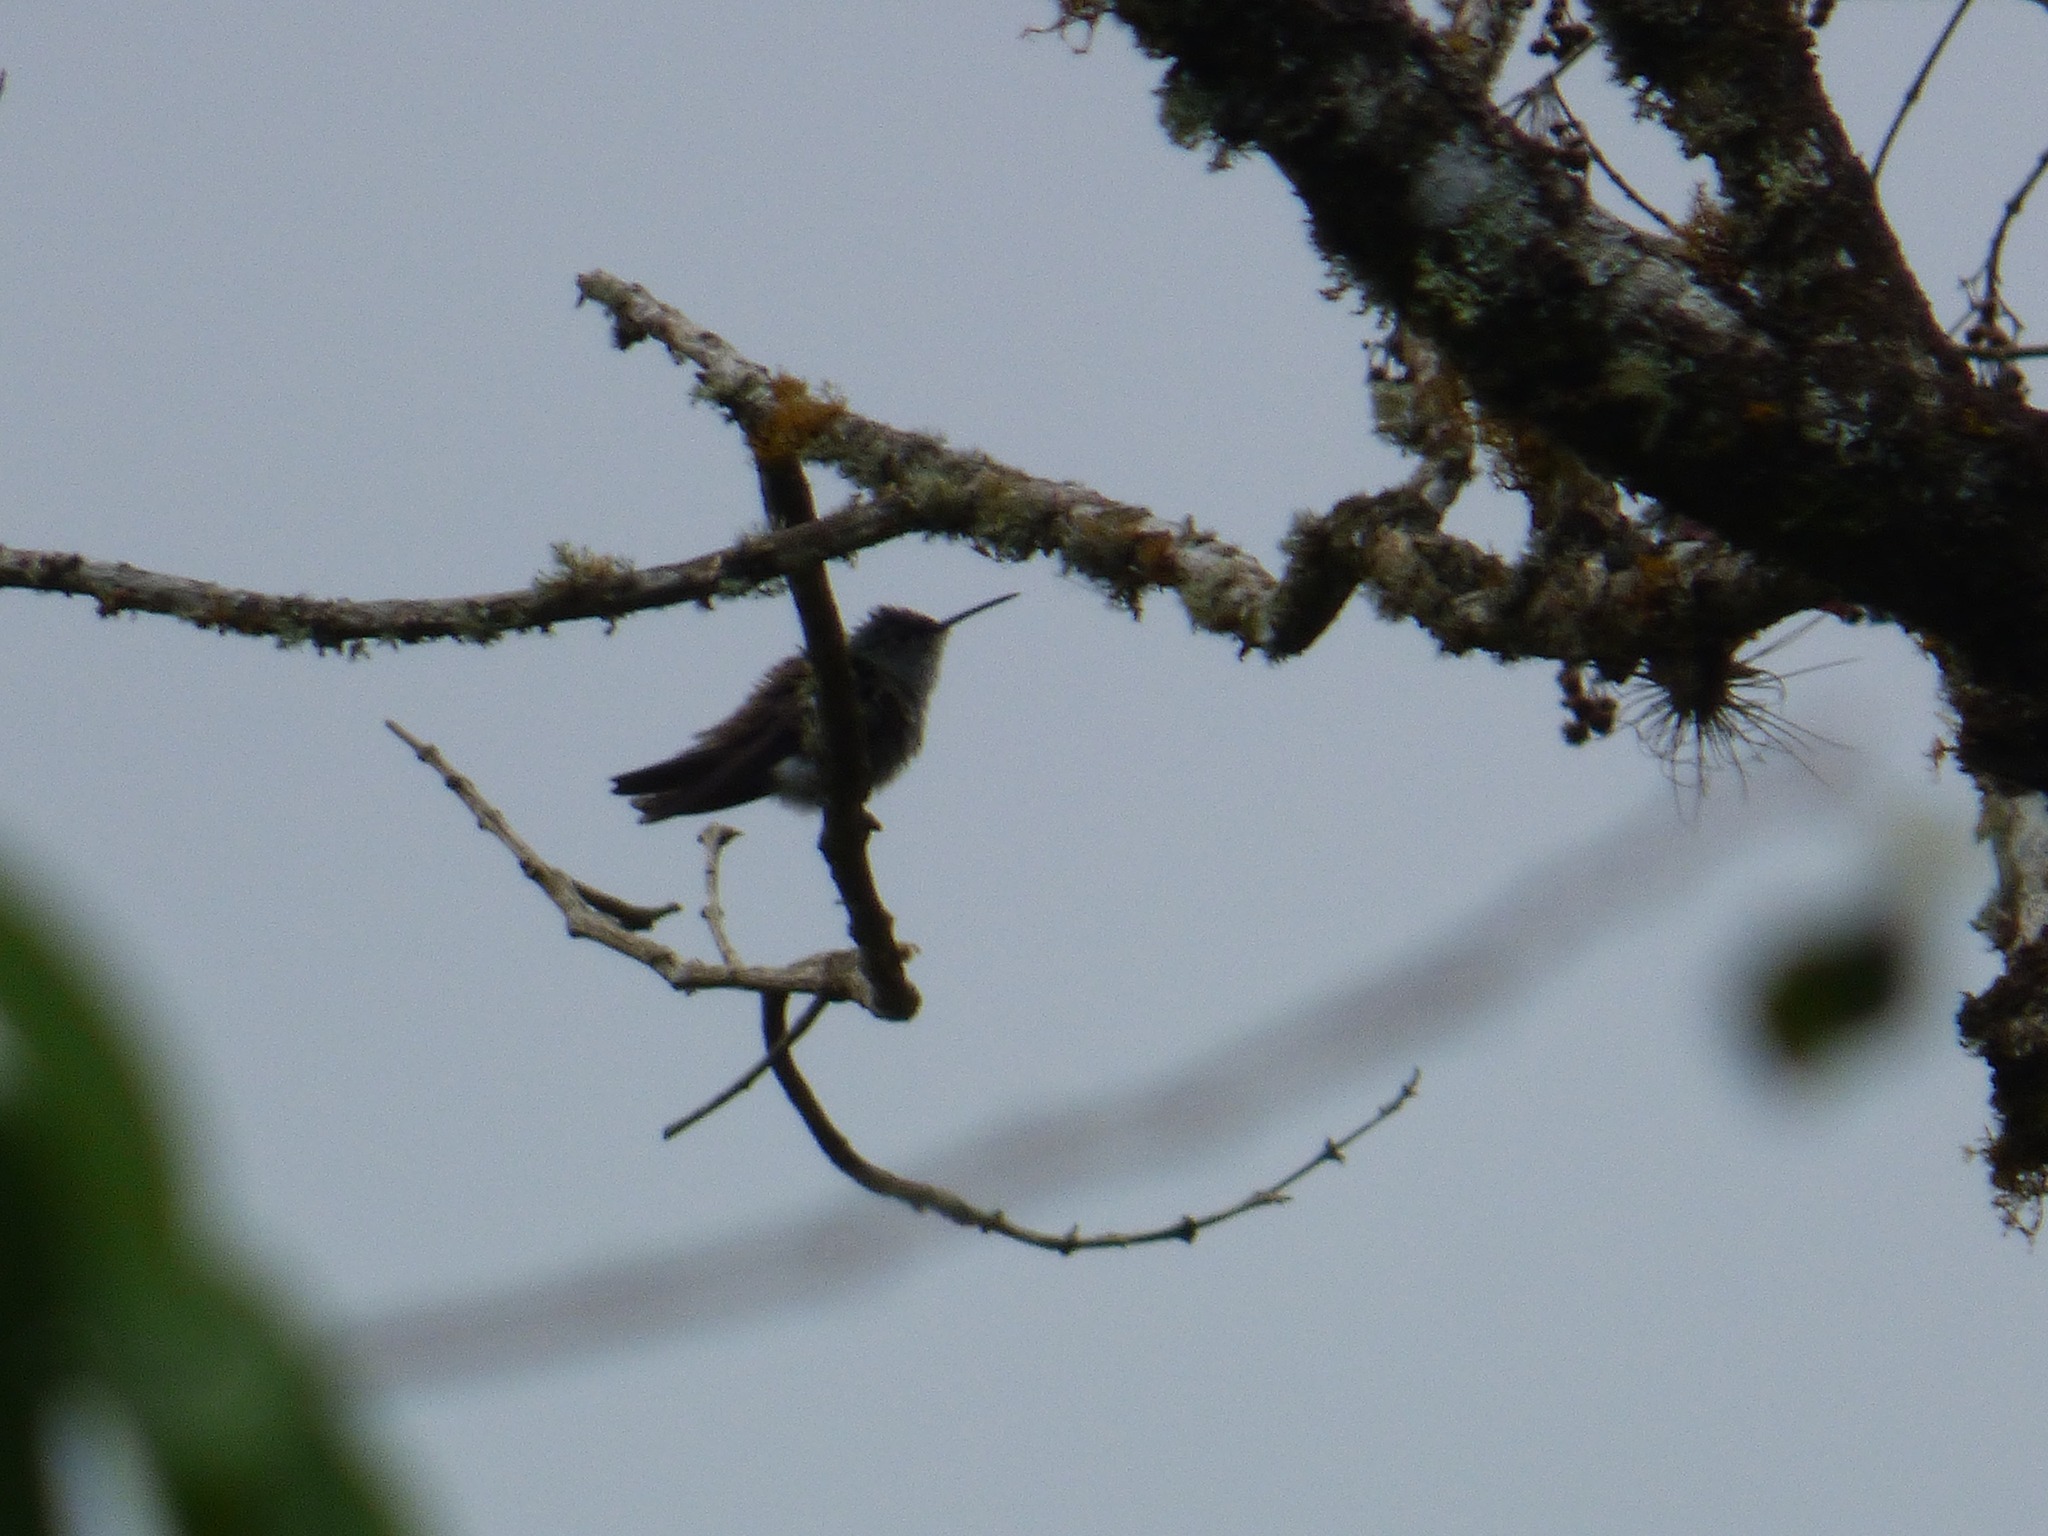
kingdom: Animalia
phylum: Chordata
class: Aves
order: Apodiformes
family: Trochilidae
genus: Saucerottia
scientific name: Saucerottia cyanocephala
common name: Azure-crowned hummingbird
